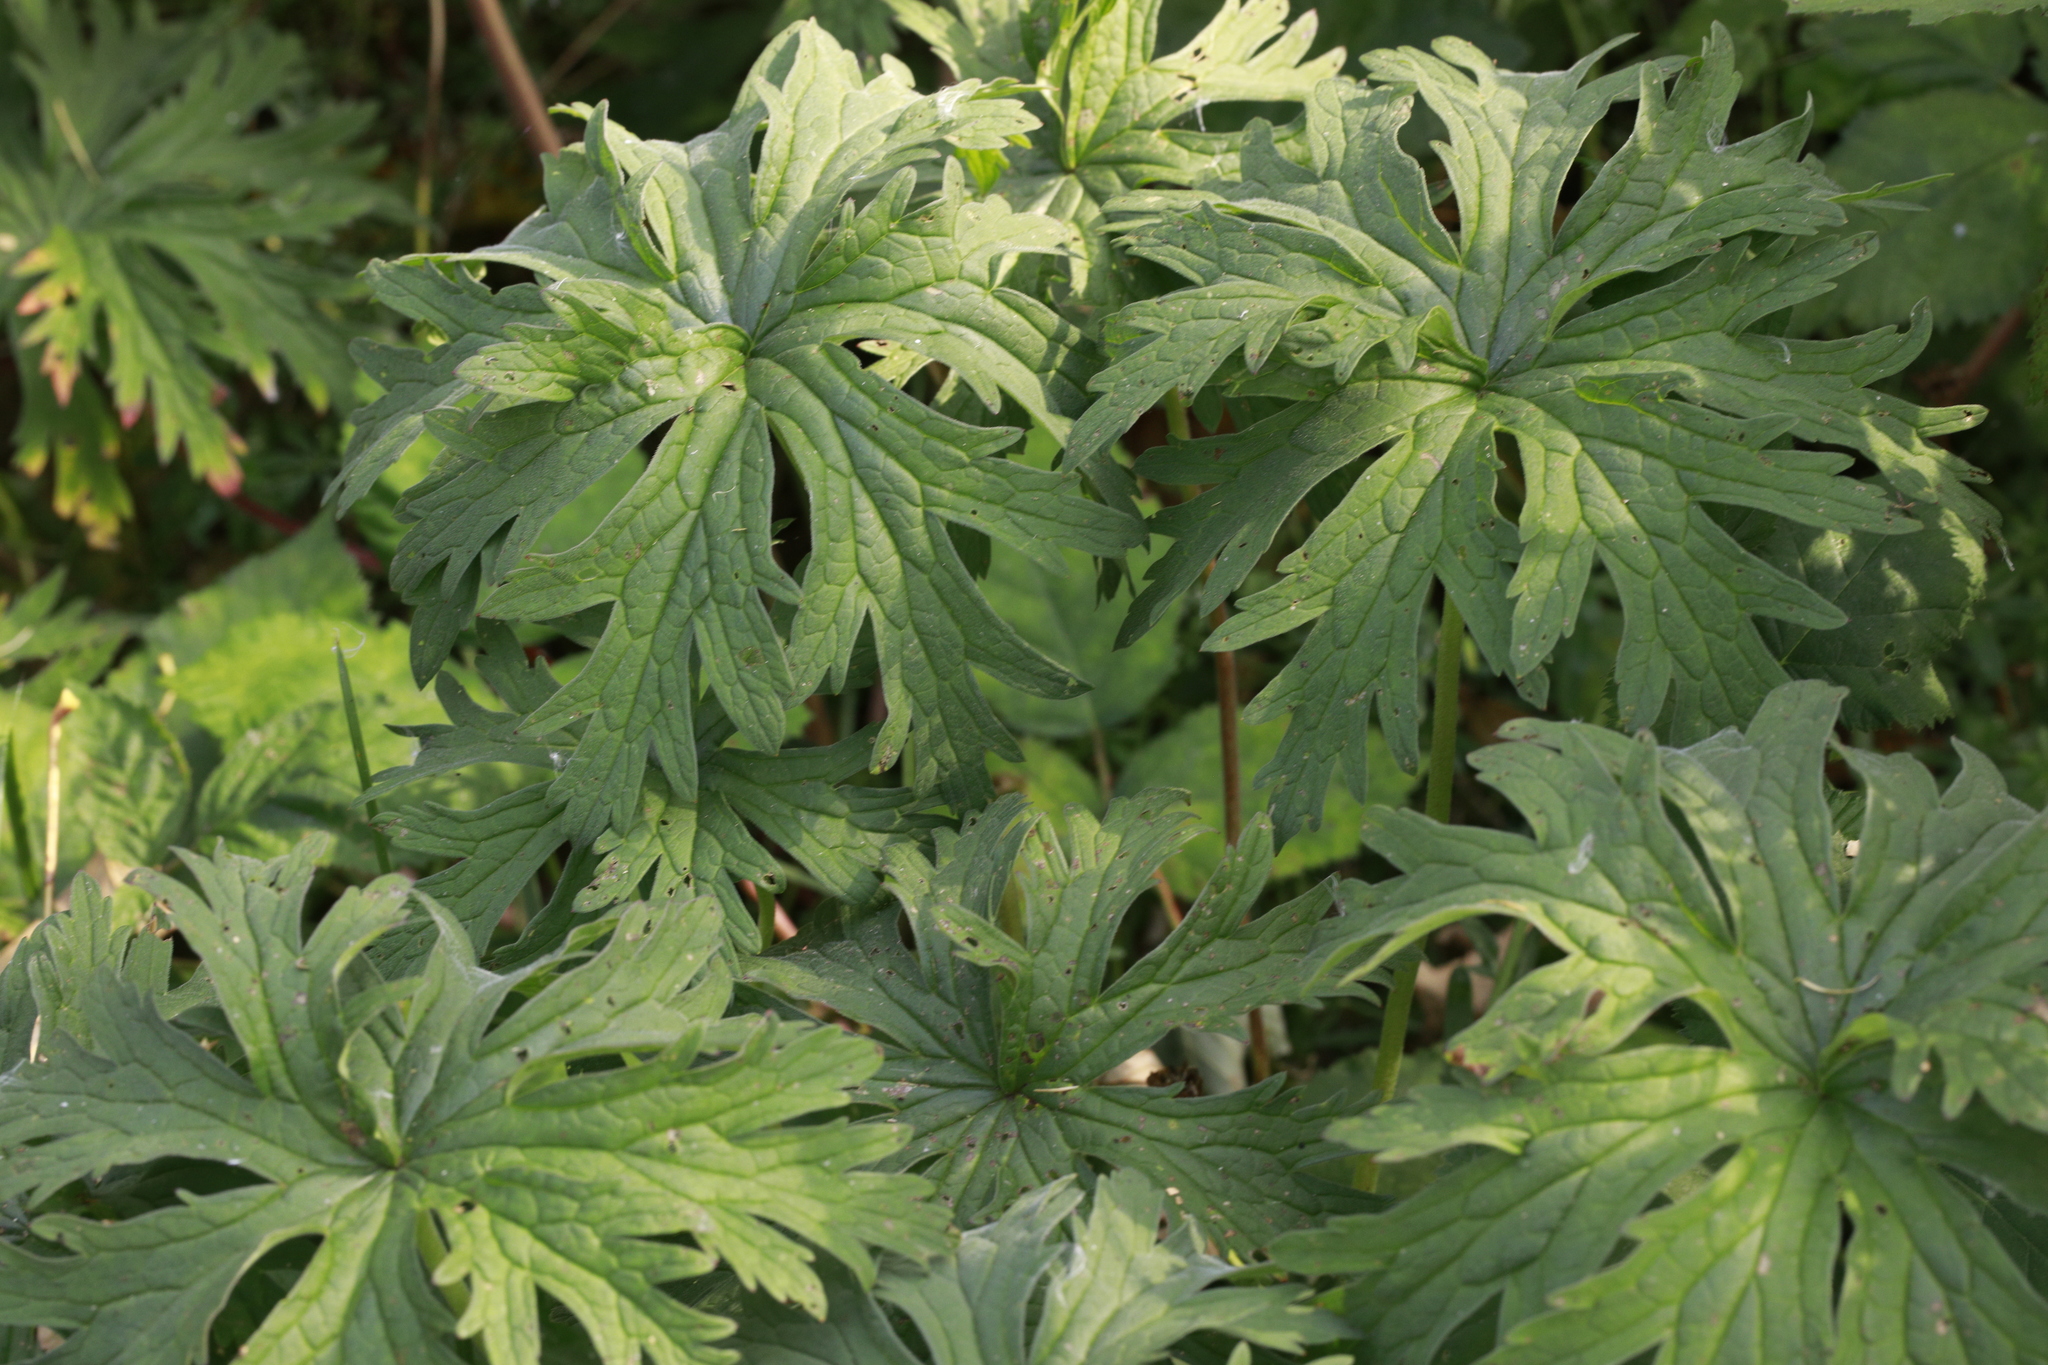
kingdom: Plantae
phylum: Tracheophyta
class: Magnoliopsida
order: Geraniales
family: Geraniaceae
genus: Geranium
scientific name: Geranium pratense
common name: Meadow crane's-bill
